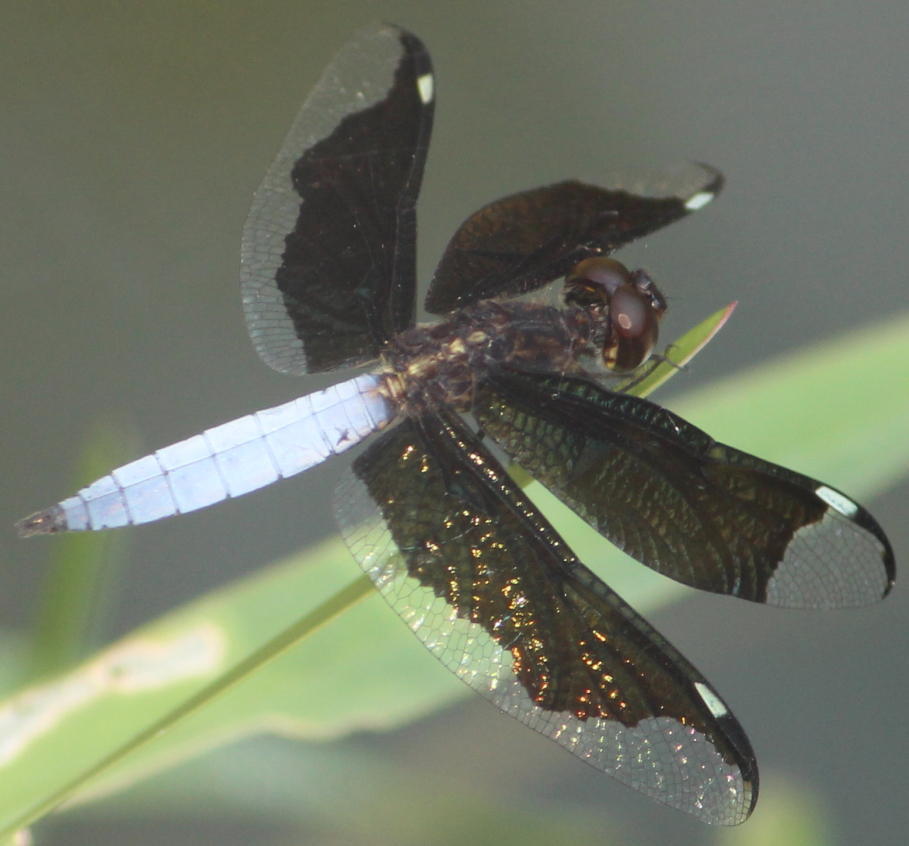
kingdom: Animalia
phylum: Arthropoda
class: Insecta
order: Odonata
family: Libellulidae
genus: Palpopleura
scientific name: Palpopleura lucia
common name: Lucia widow
